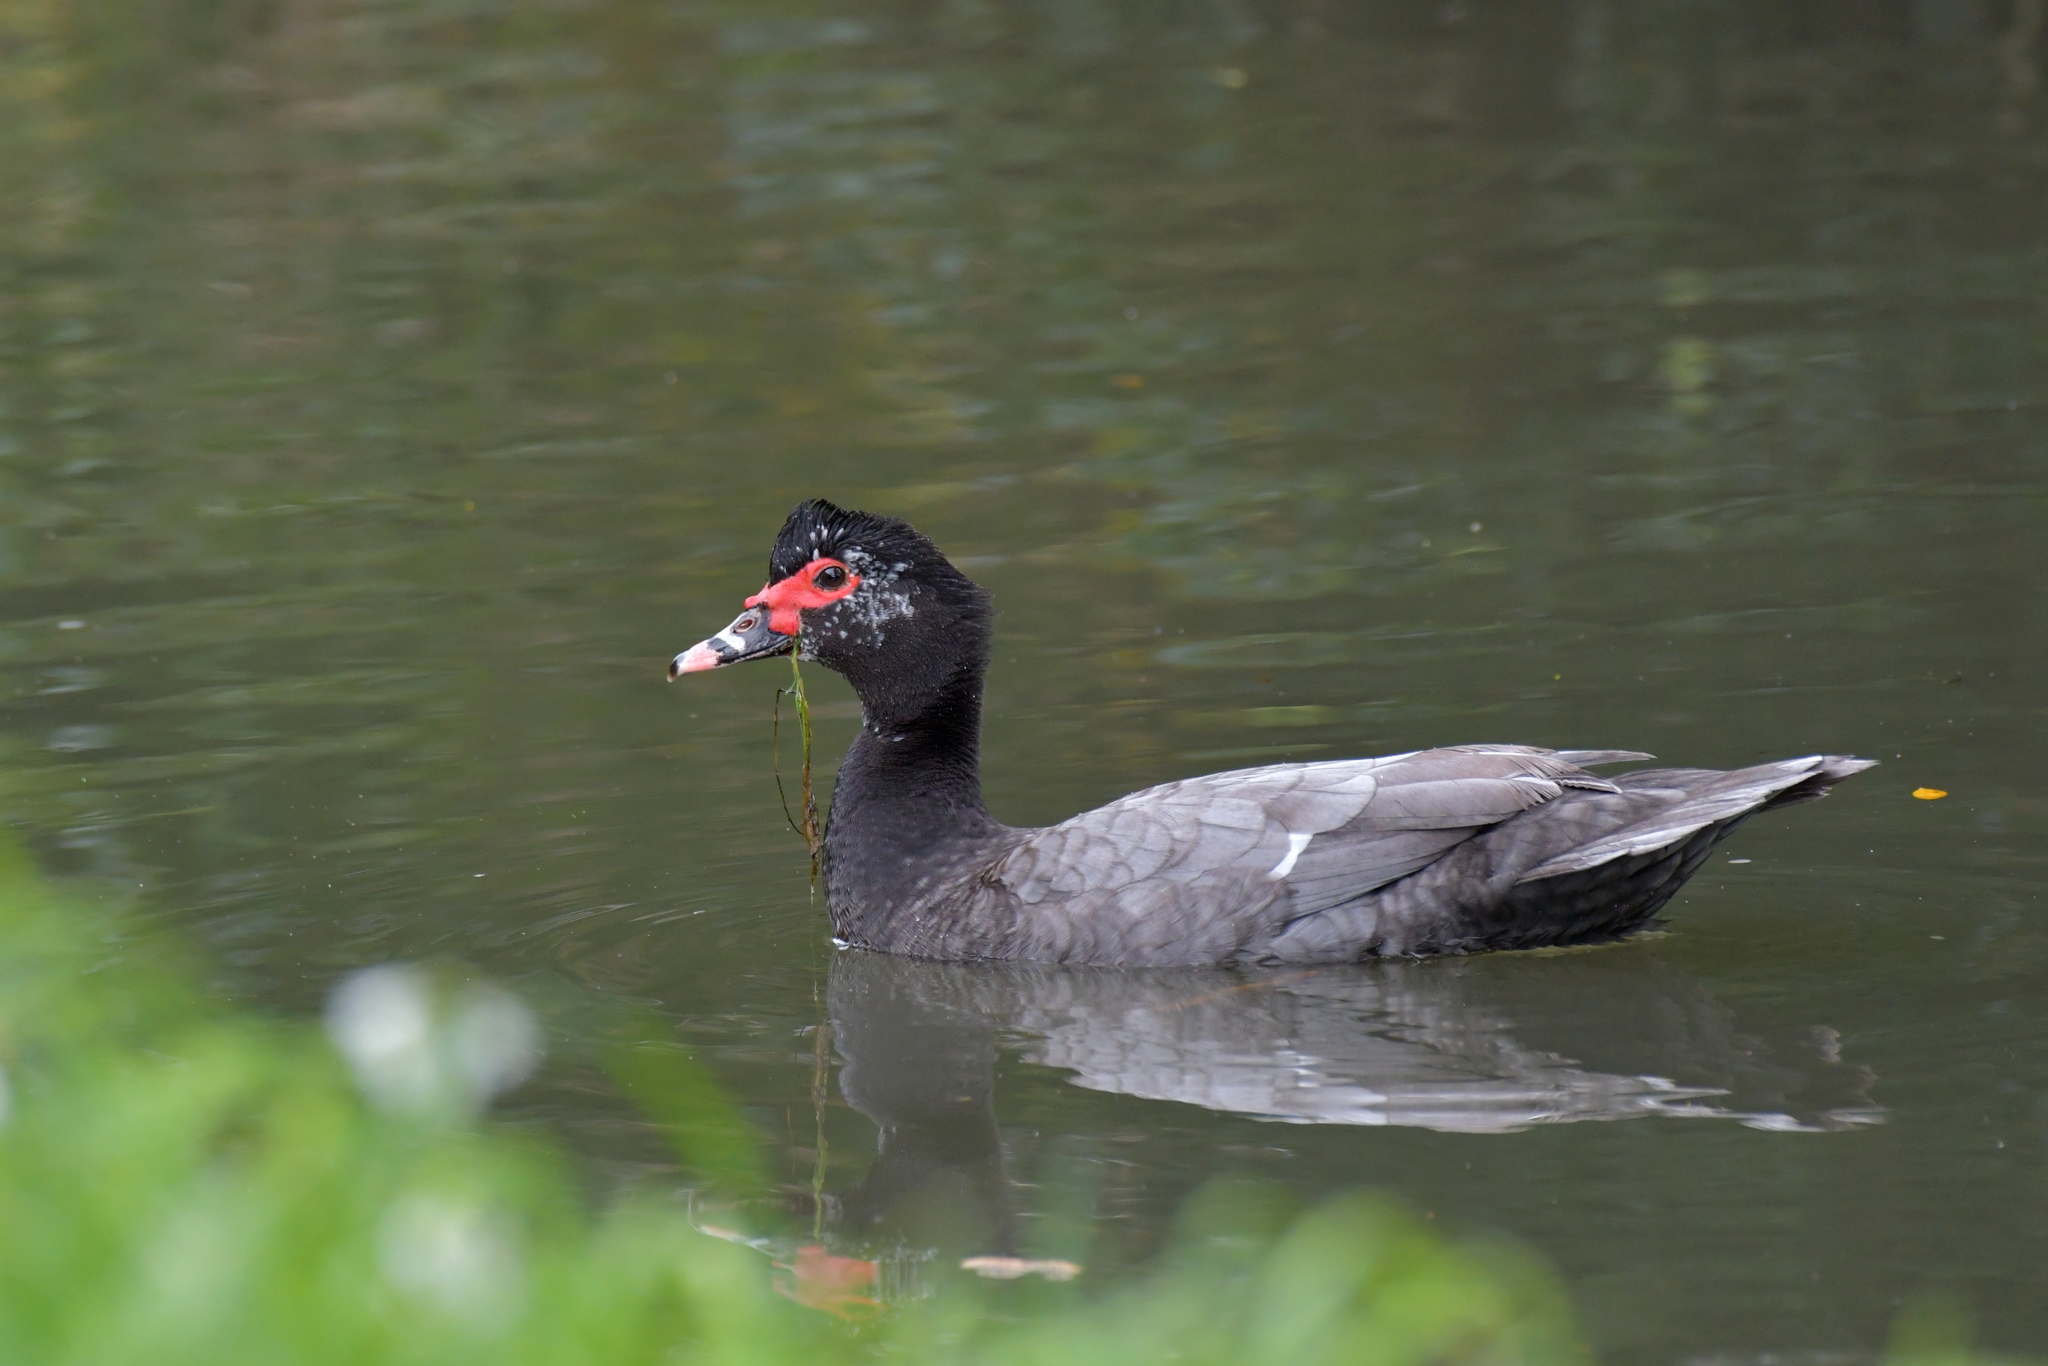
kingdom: Animalia
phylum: Chordata
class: Aves
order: Anseriformes
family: Anatidae
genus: Cairina
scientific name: Cairina moschata
